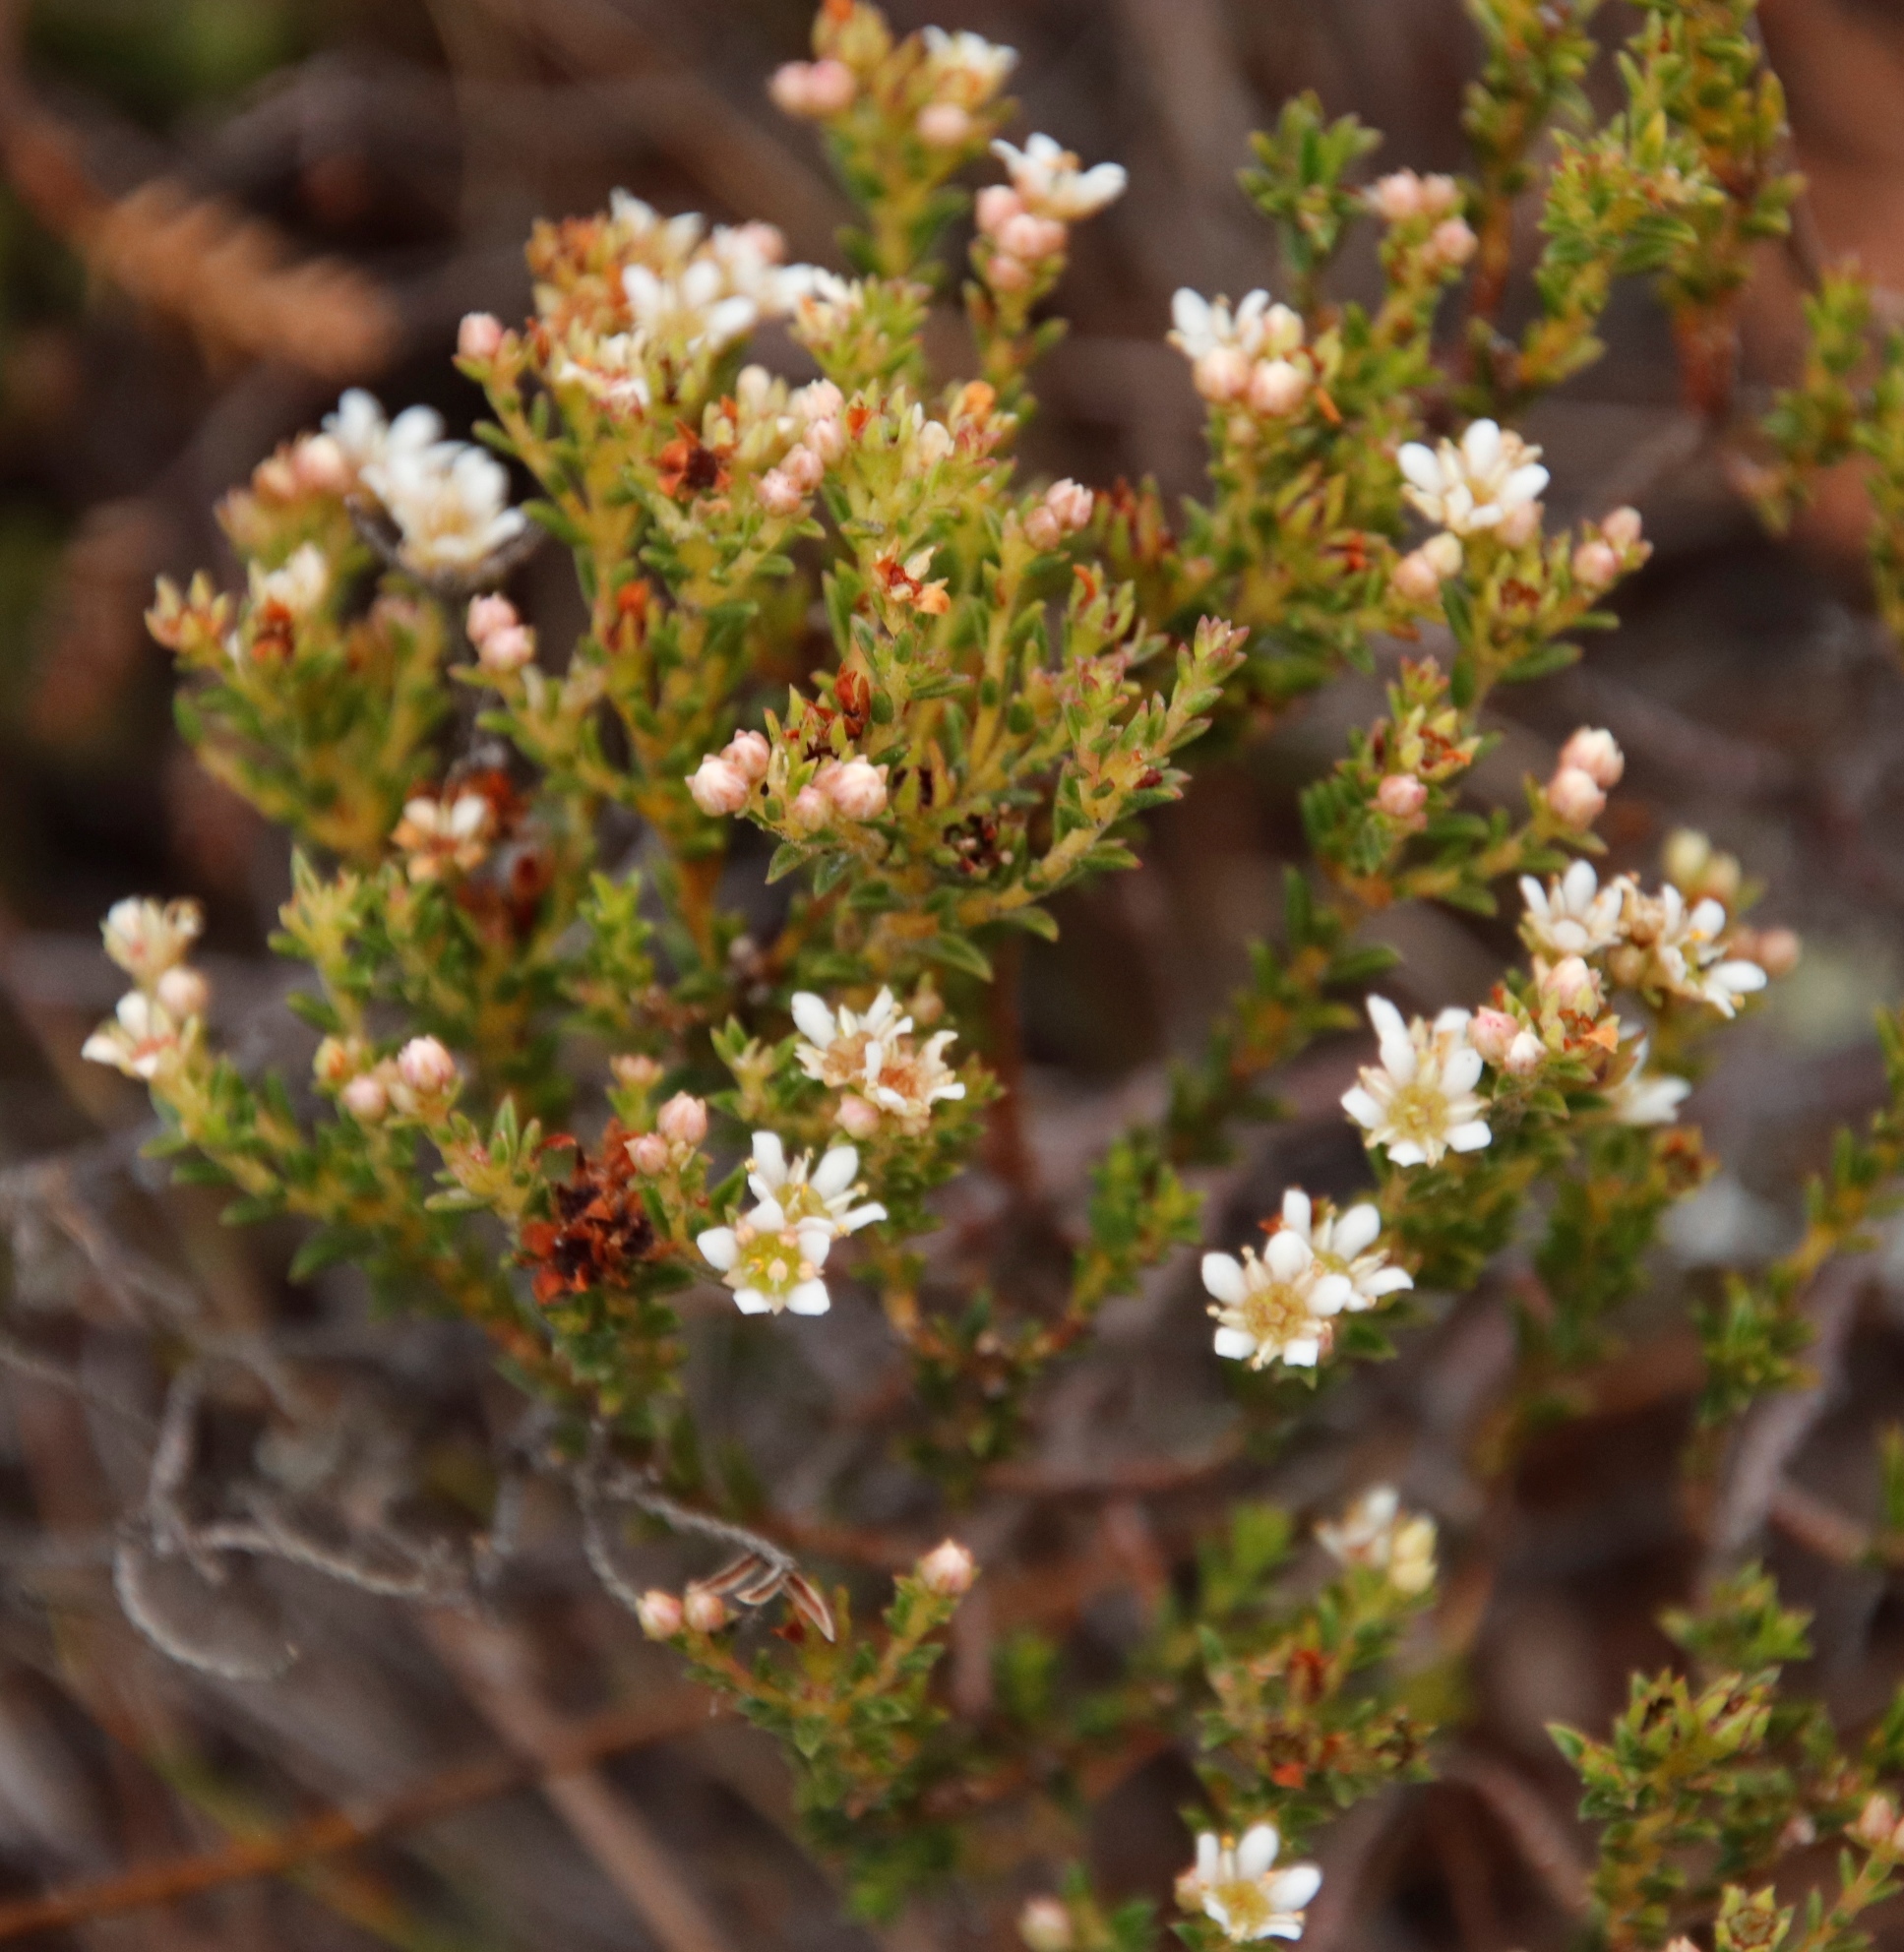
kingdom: Plantae
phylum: Tracheophyta
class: Magnoliopsida
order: Sapindales
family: Rutaceae
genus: Diosma
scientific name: Diosma oppositifolia
